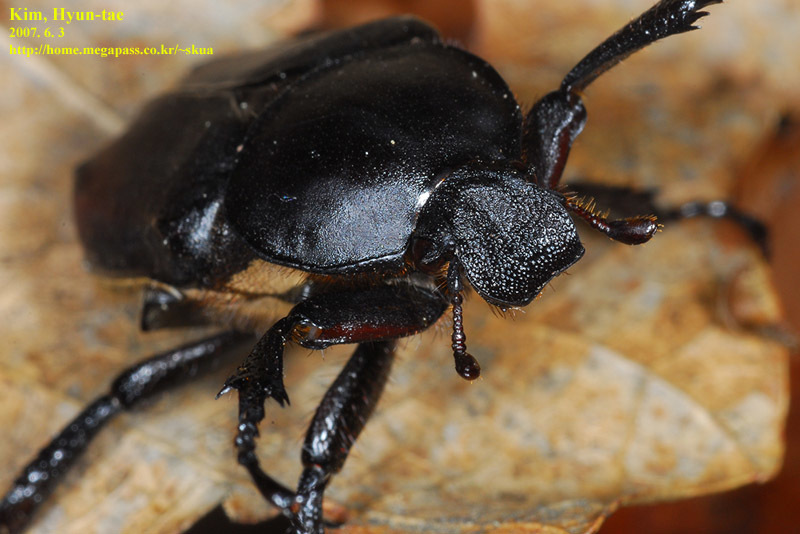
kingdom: Animalia
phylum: Arthropoda
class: Insecta
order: Coleoptera
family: Scarabaeidae
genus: Dicronocephalus
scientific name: Dicronocephalus adamsi
